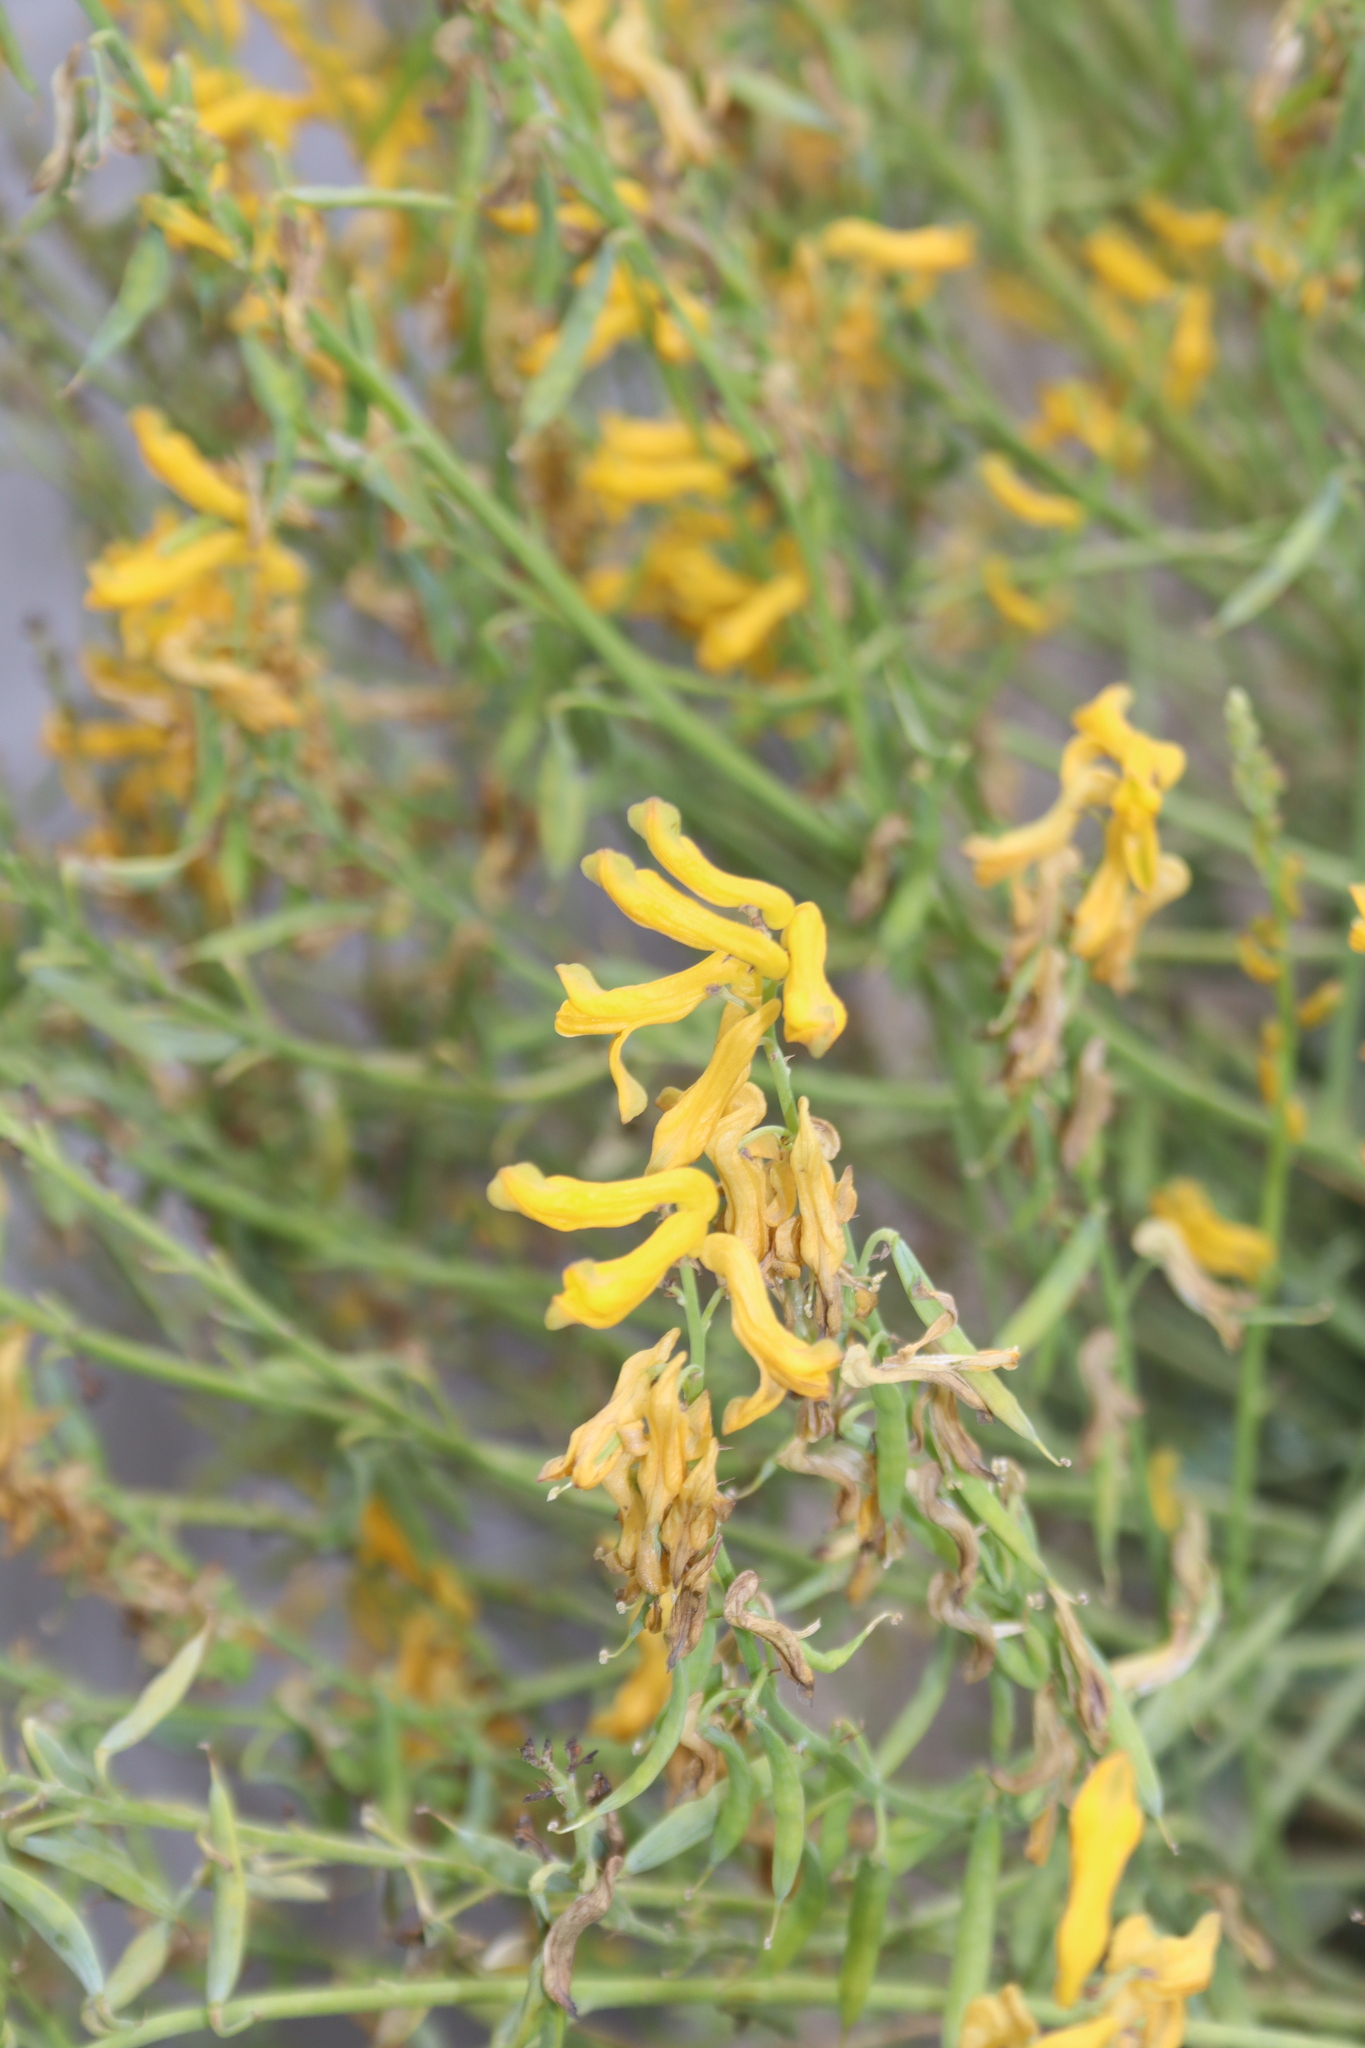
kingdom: Plantae
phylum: Tracheophyta
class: Magnoliopsida
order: Ranunculales
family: Papaveraceae
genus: Corydalis
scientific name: Corydalis flabellata
